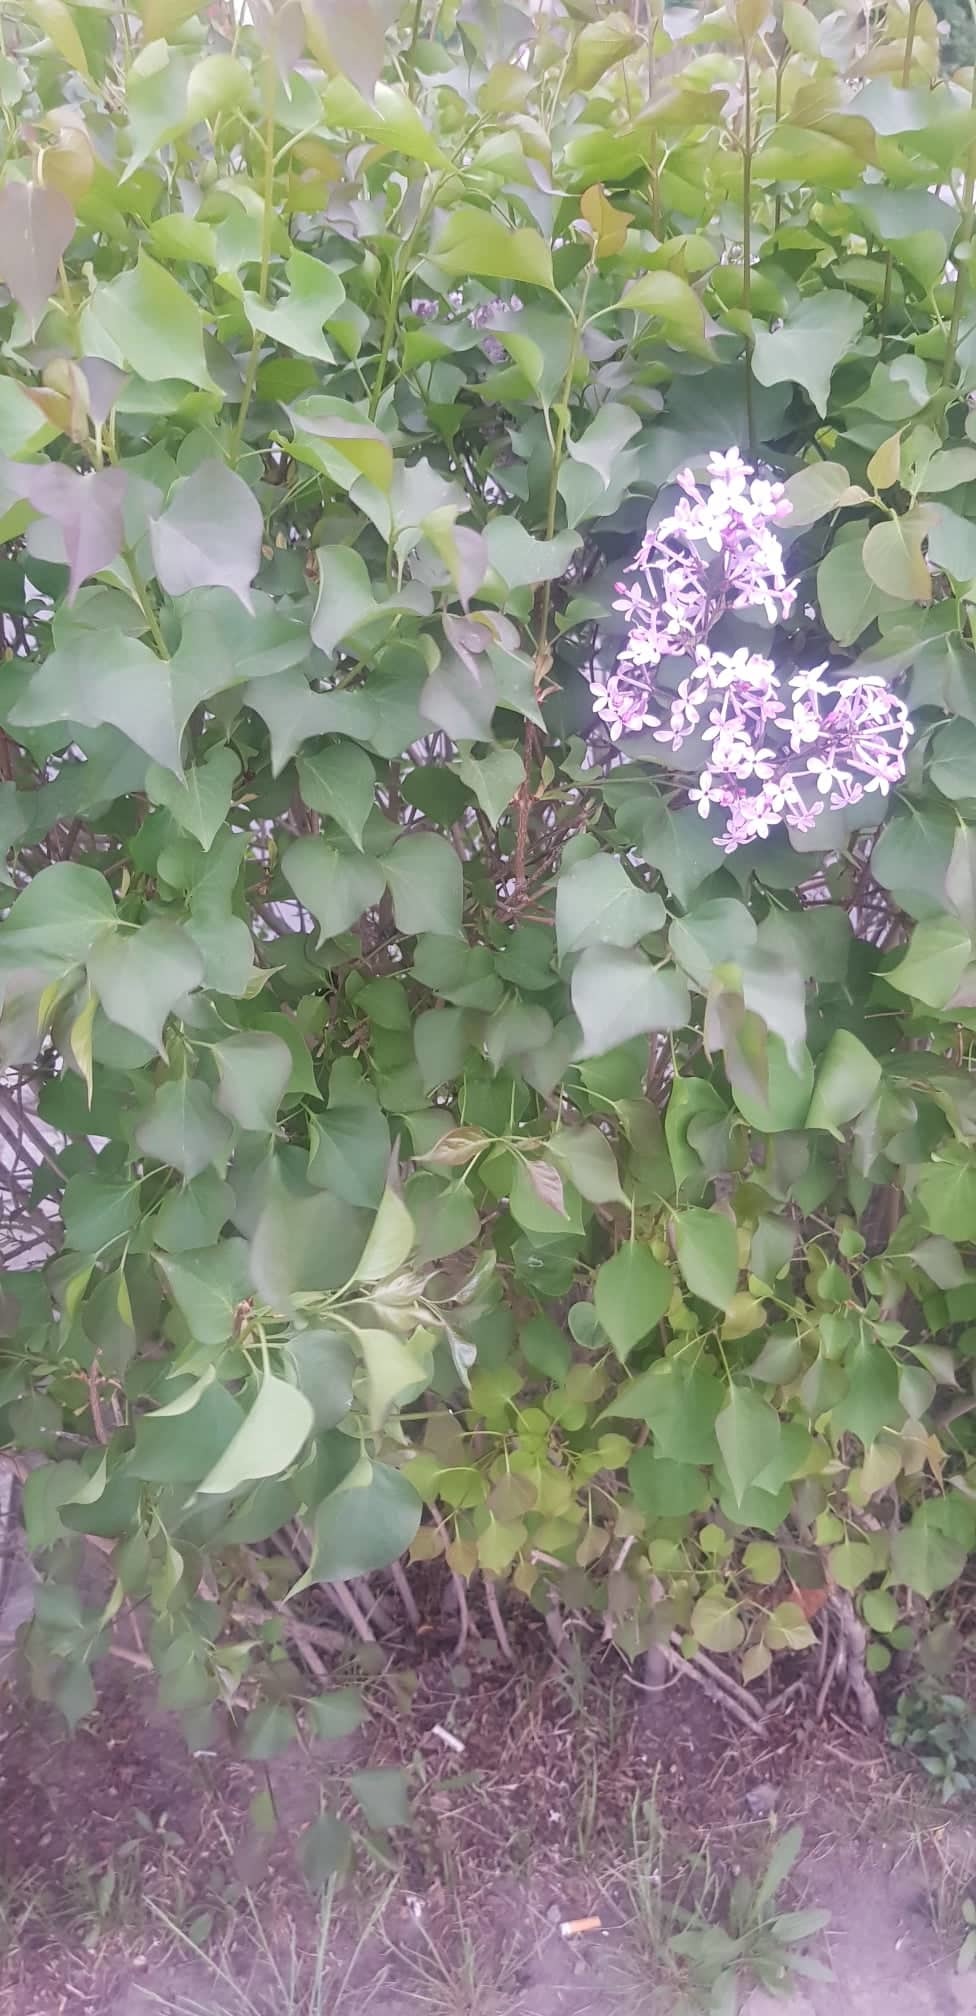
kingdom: Plantae
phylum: Tracheophyta
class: Magnoliopsida
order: Lamiales
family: Oleaceae
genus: Syringa
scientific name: Syringa vulgaris
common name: Common lilac
